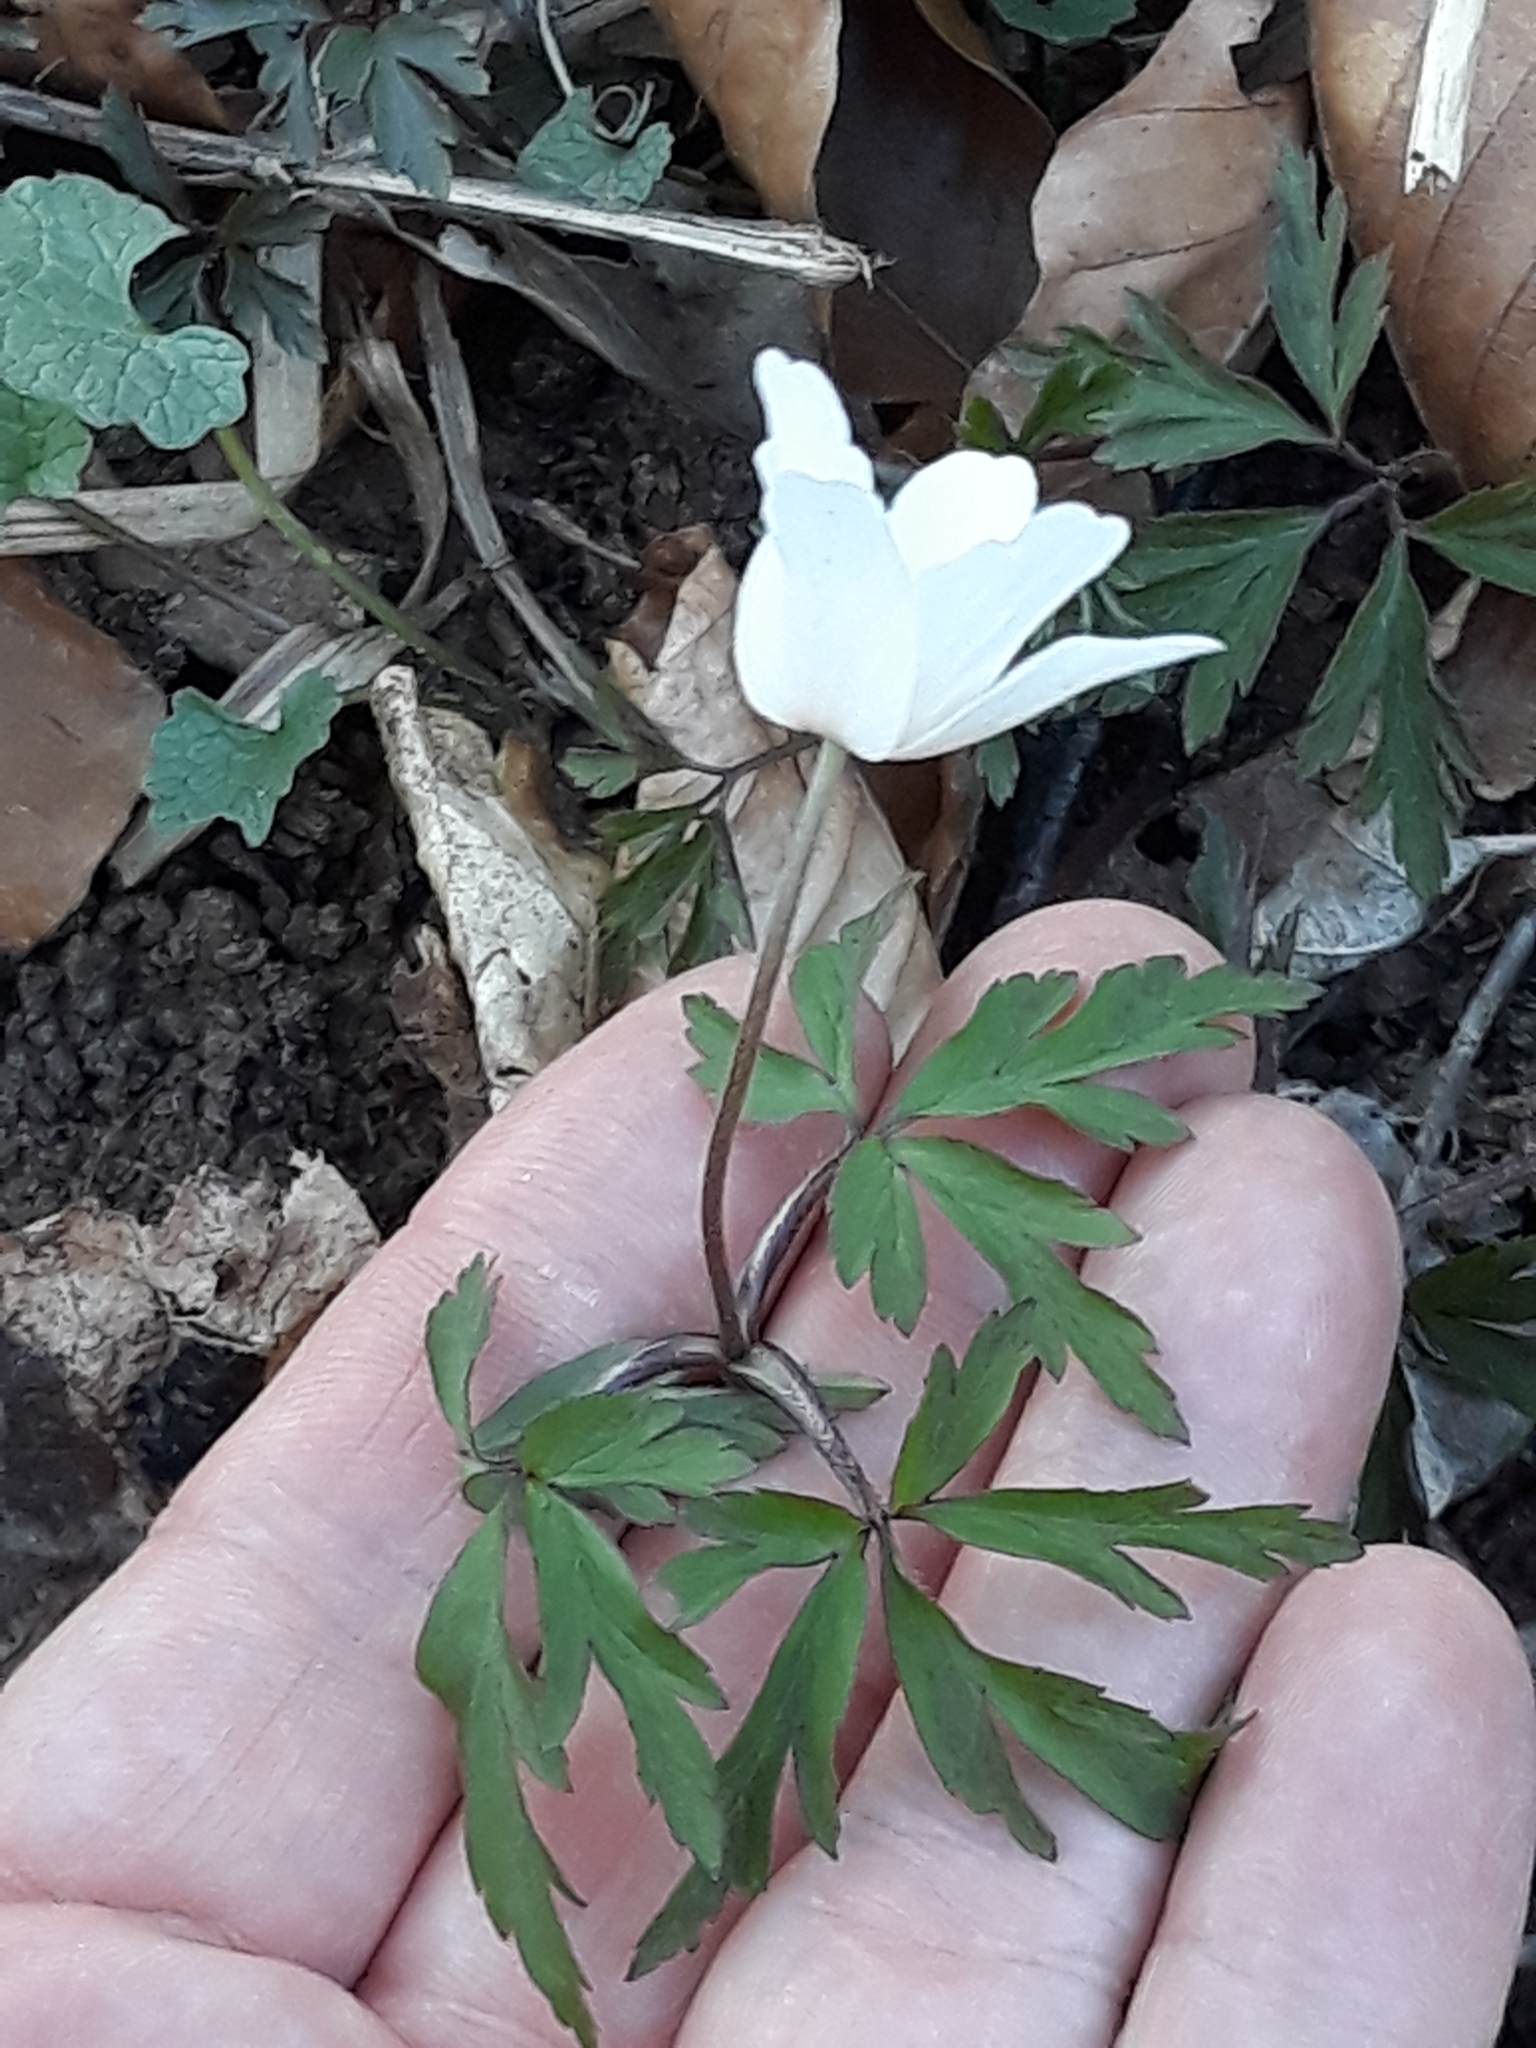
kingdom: Plantae
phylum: Tracheophyta
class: Magnoliopsida
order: Ranunculales
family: Ranunculaceae
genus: Anemone
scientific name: Anemone nemorosa
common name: Wood anemone
